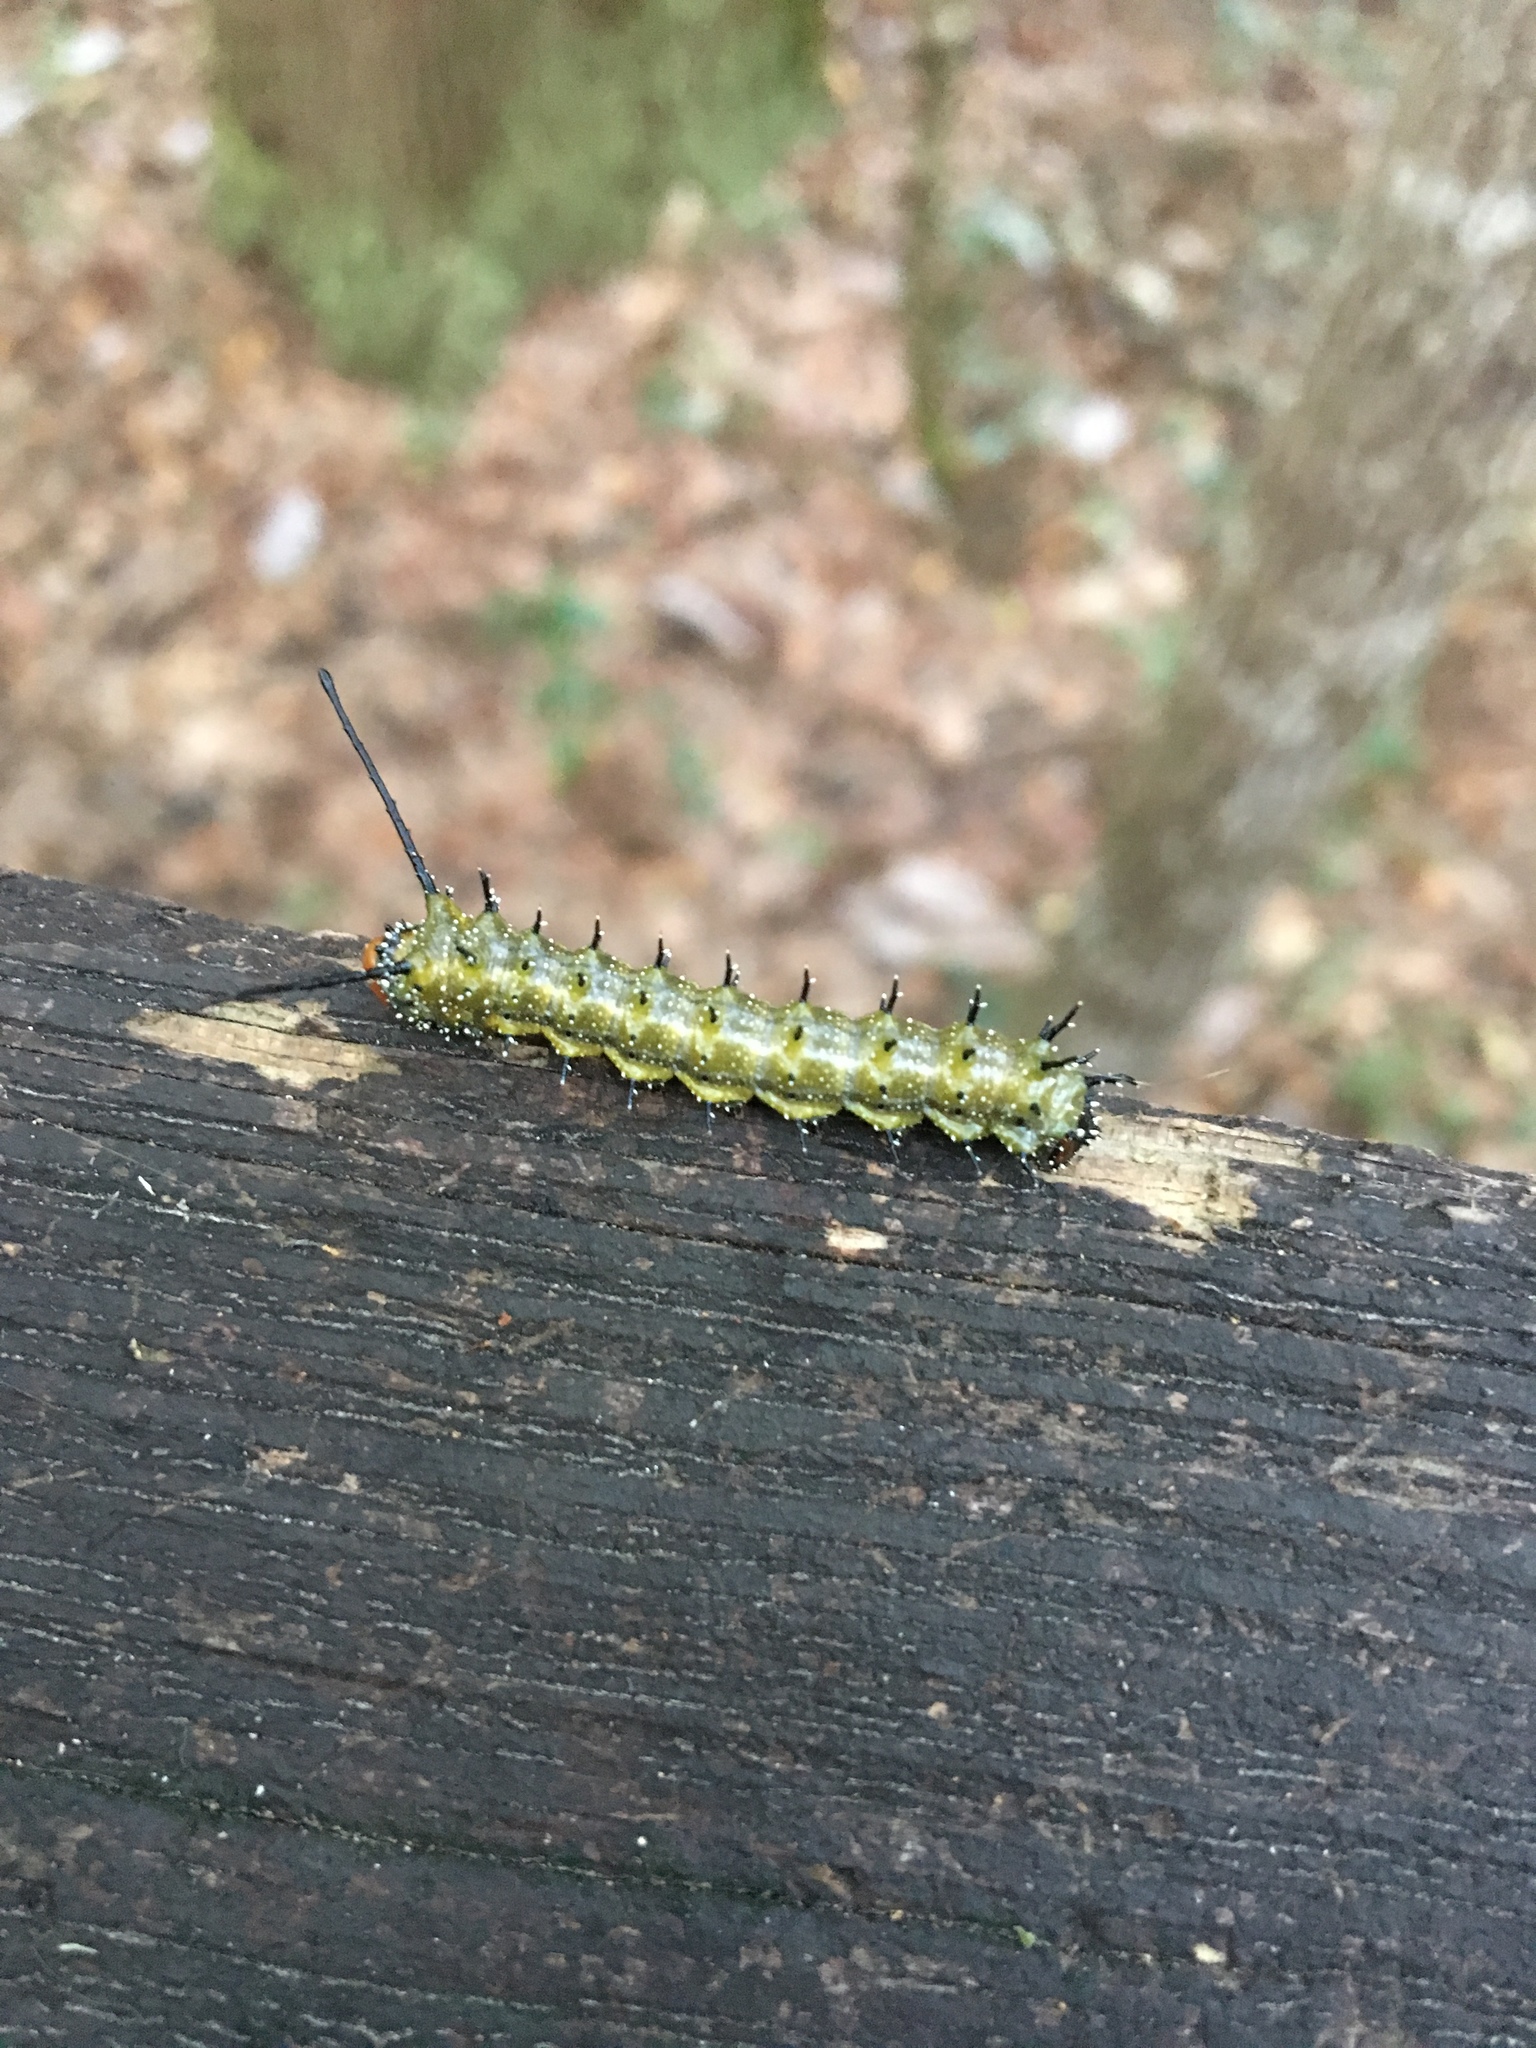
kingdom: Animalia
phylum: Arthropoda
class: Insecta
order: Lepidoptera
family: Saturniidae
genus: Anisota
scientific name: Anisota consularis
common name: Florida oakworm moth
